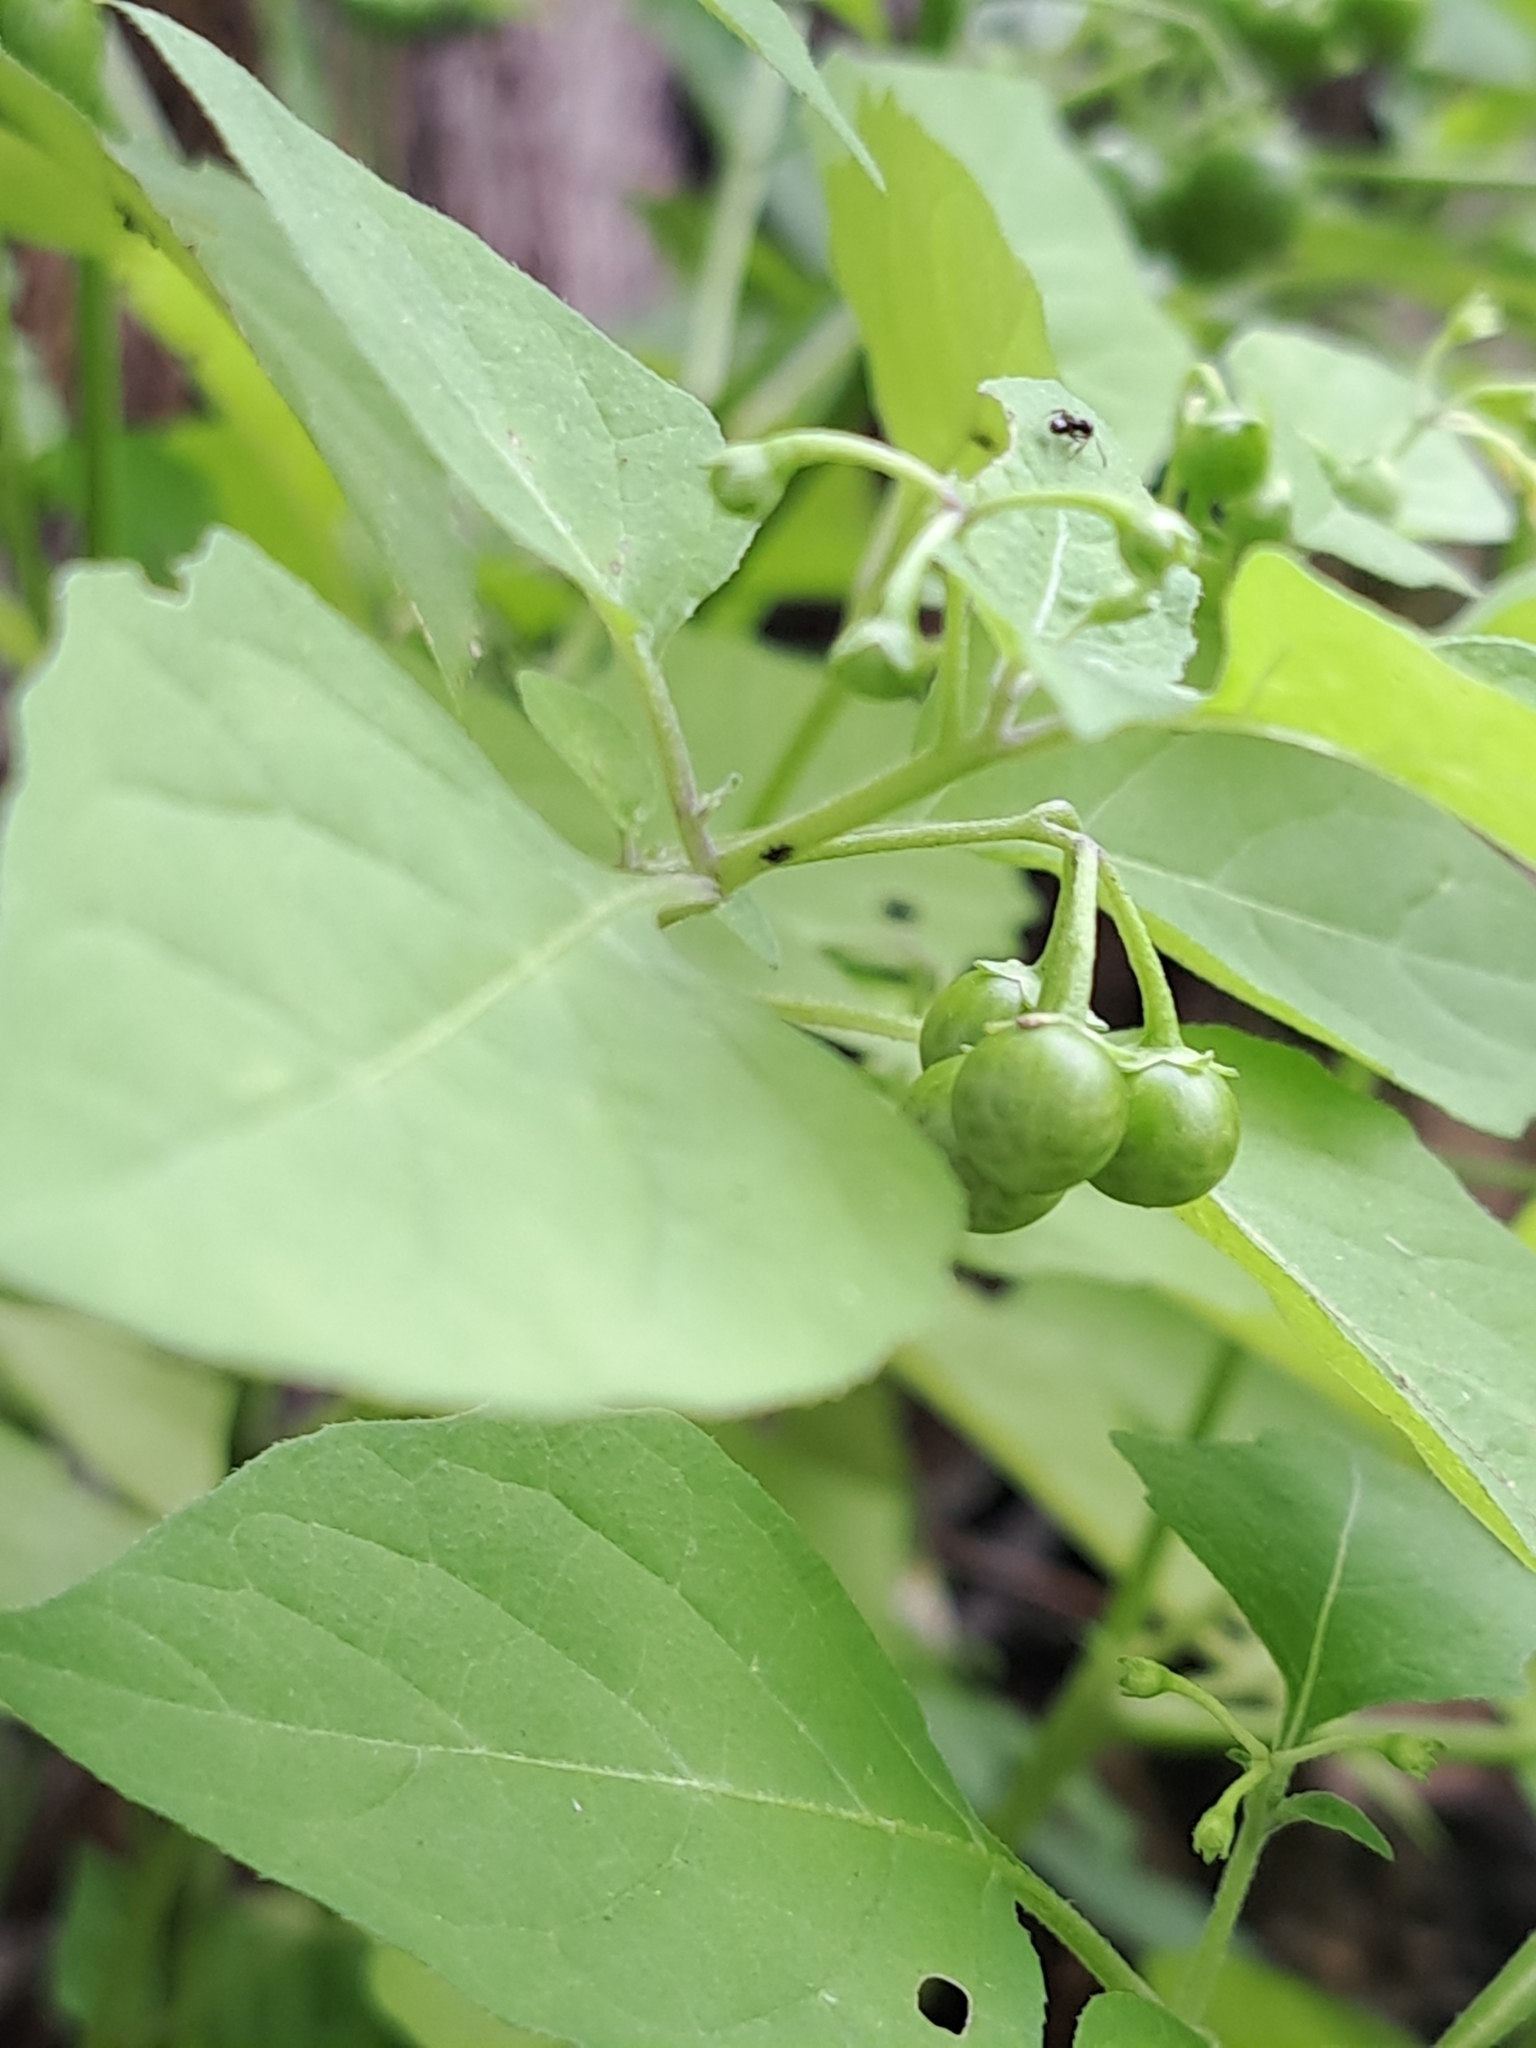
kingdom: Plantae
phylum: Tracheophyta
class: Magnoliopsida
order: Solanales
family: Solanaceae
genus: Solanum
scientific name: Solanum emulans
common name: Eastern black nightshade
